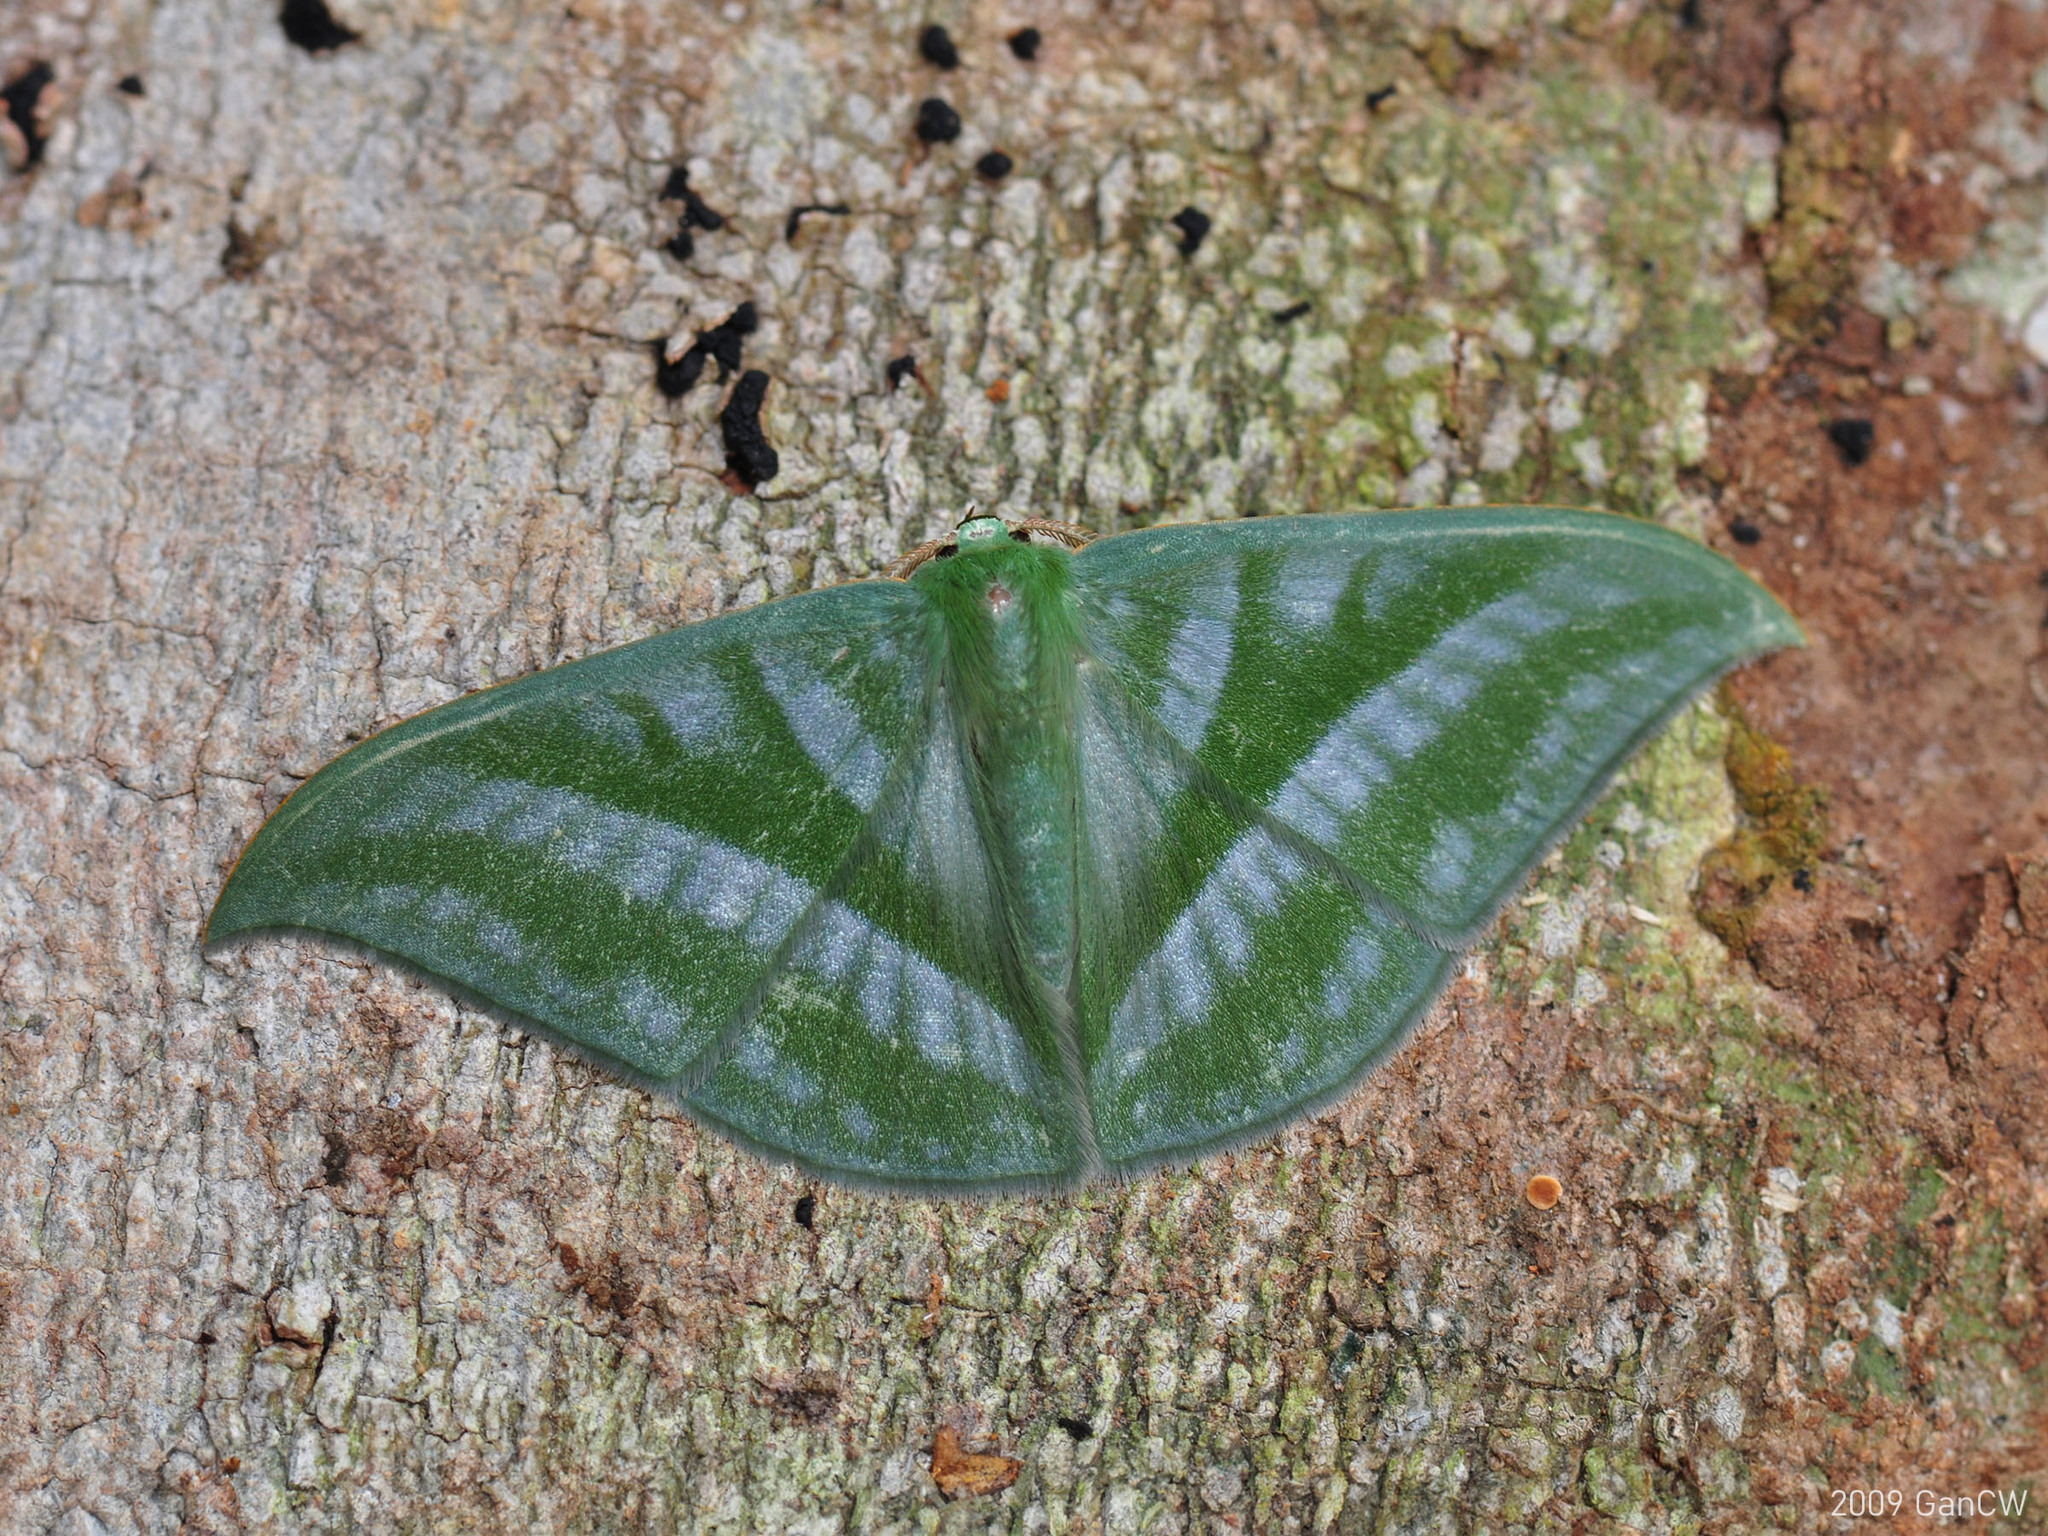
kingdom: Animalia
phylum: Arthropoda
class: Insecta
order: Lepidoptera
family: Geometridae
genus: Mixochlora
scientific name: Mixochlora vittata
